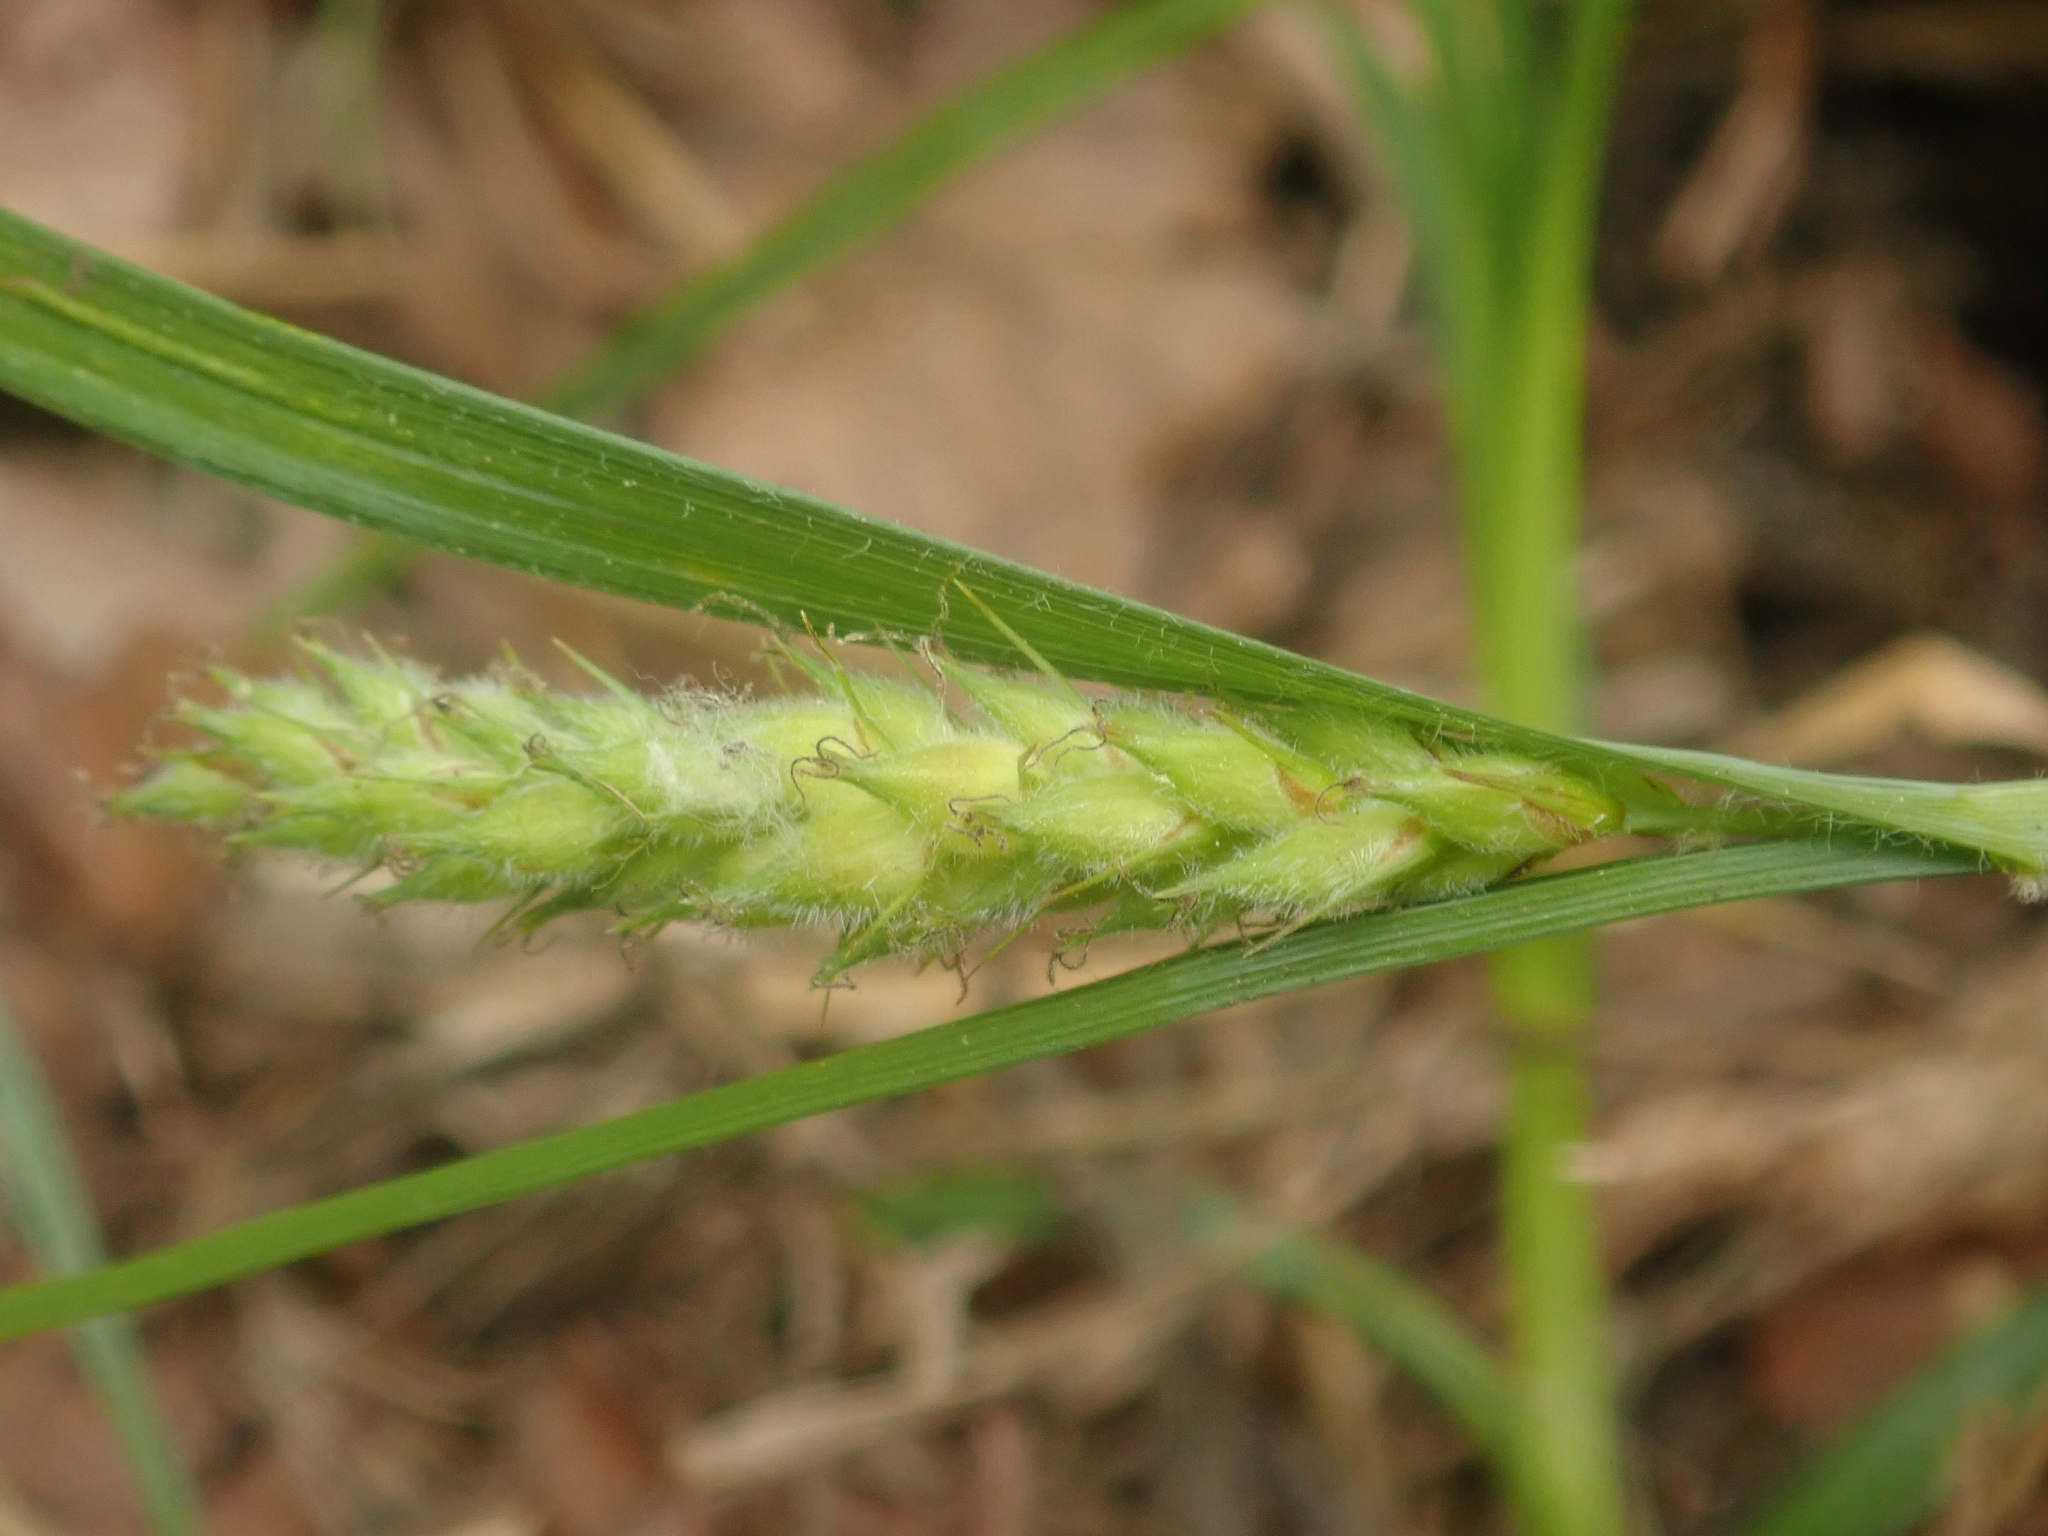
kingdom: Plantae
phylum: Tracheophyta
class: Liliopsida
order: Poales
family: Cyperaceae
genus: Carex
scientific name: Carex hirta
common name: Hairy sedge
